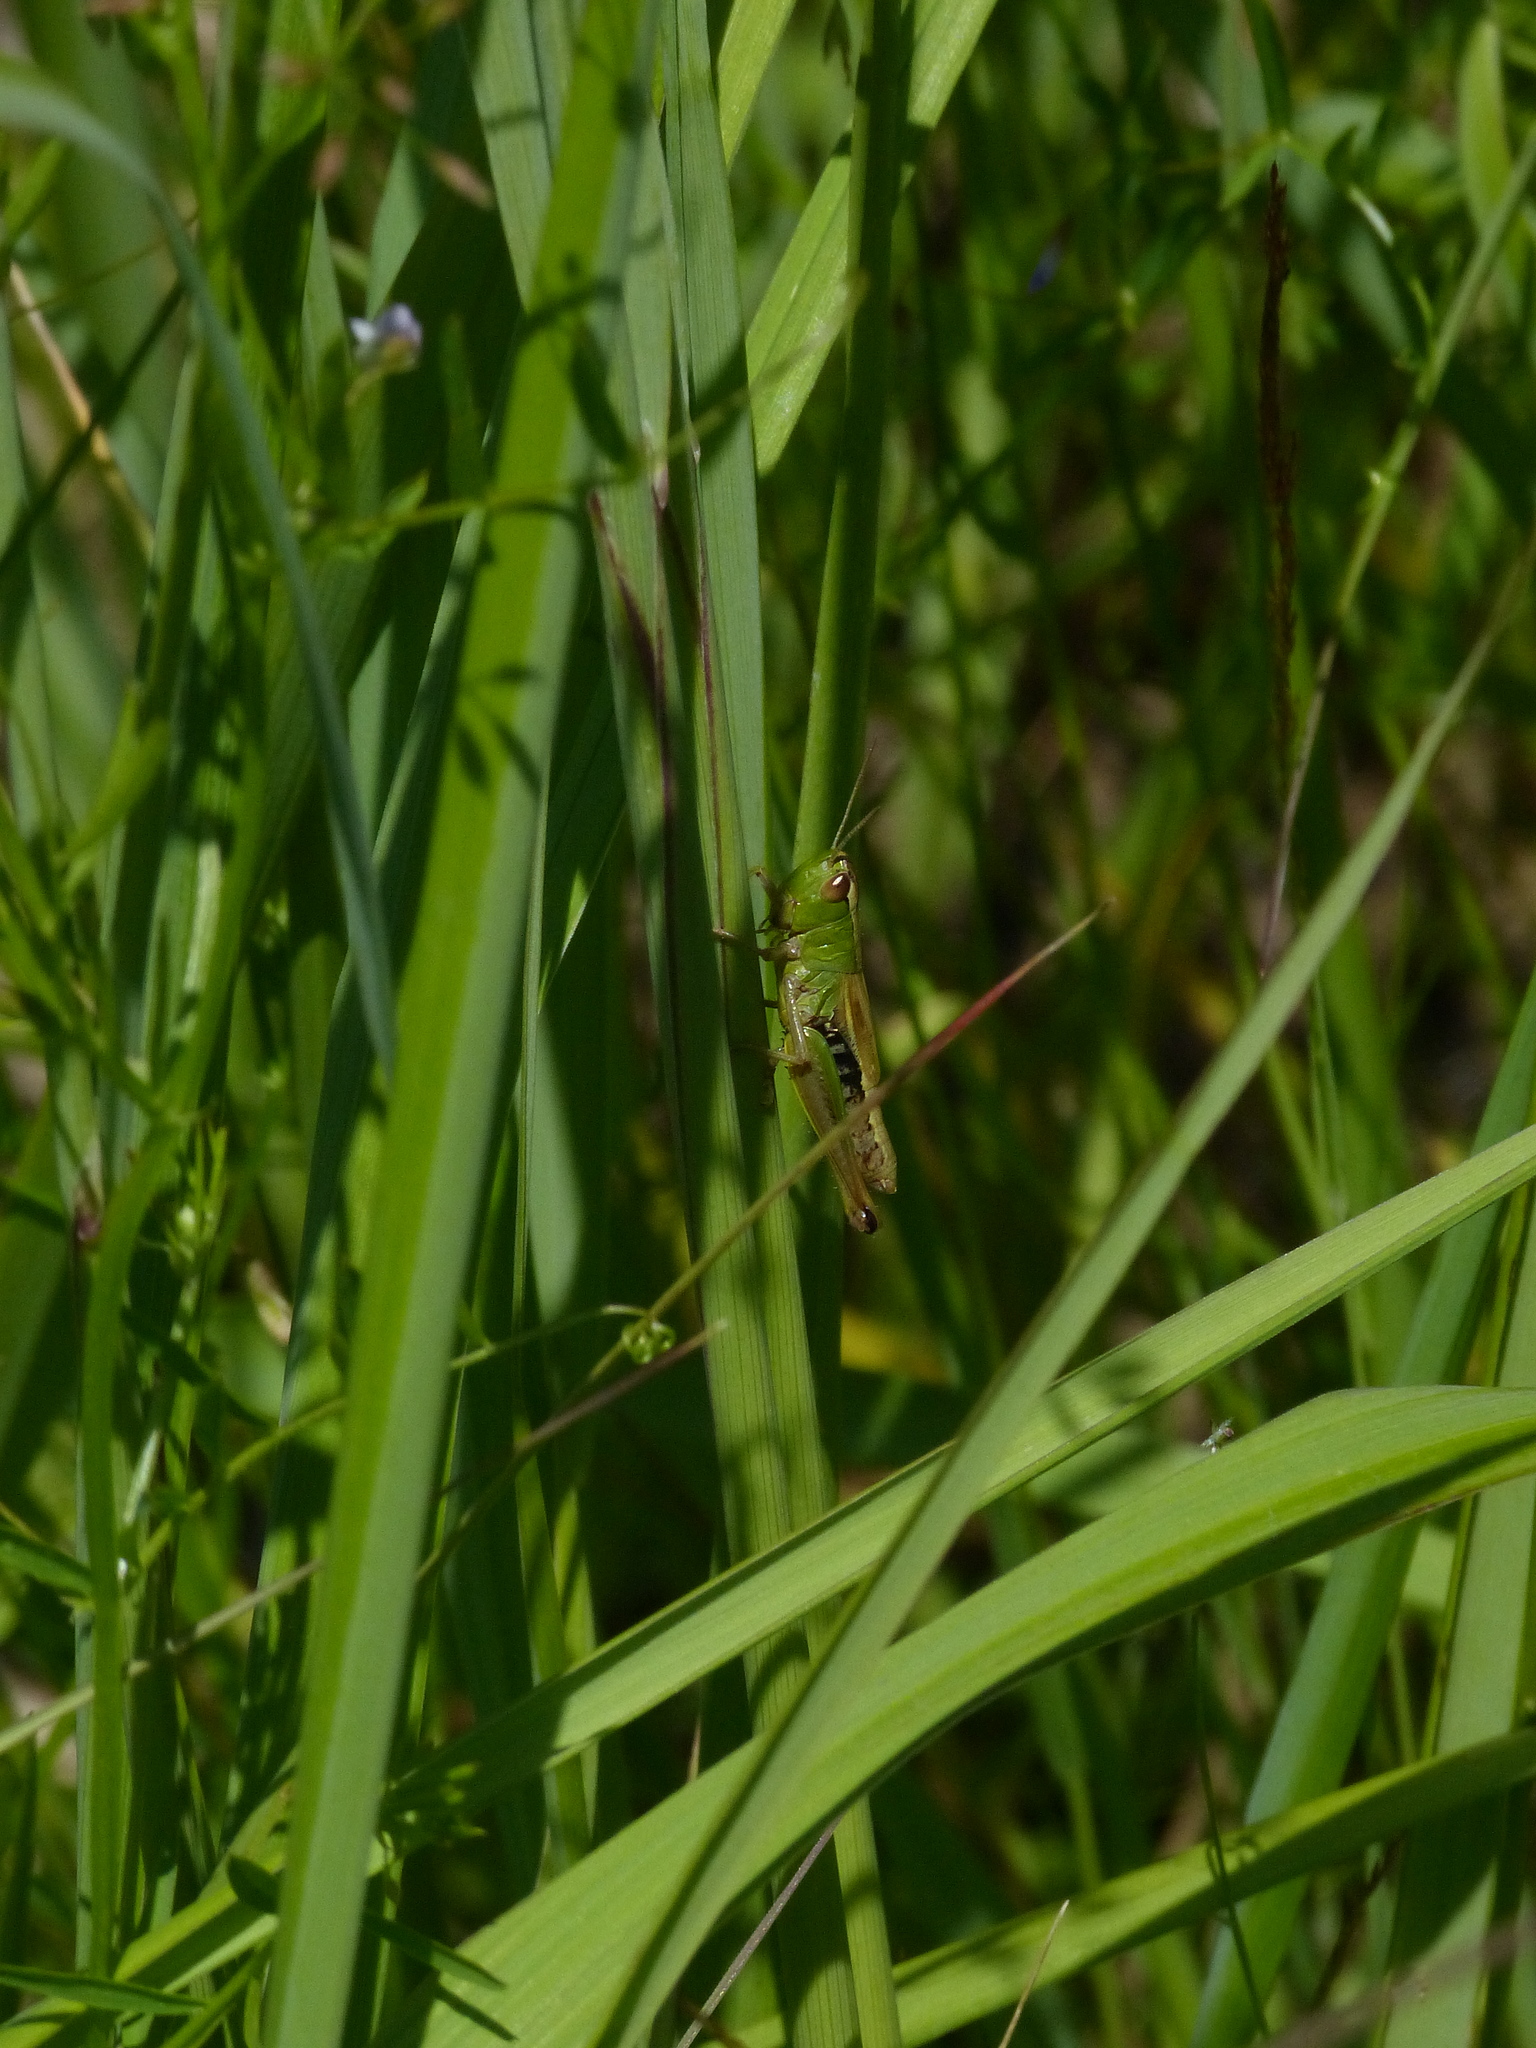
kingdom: Animalia
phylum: Arthropoda
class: Insecta
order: Orthoptera
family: Acrididae
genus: Pseudochorthippus
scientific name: Pseudochorthippus parallelus
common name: Meadow grasshopper
